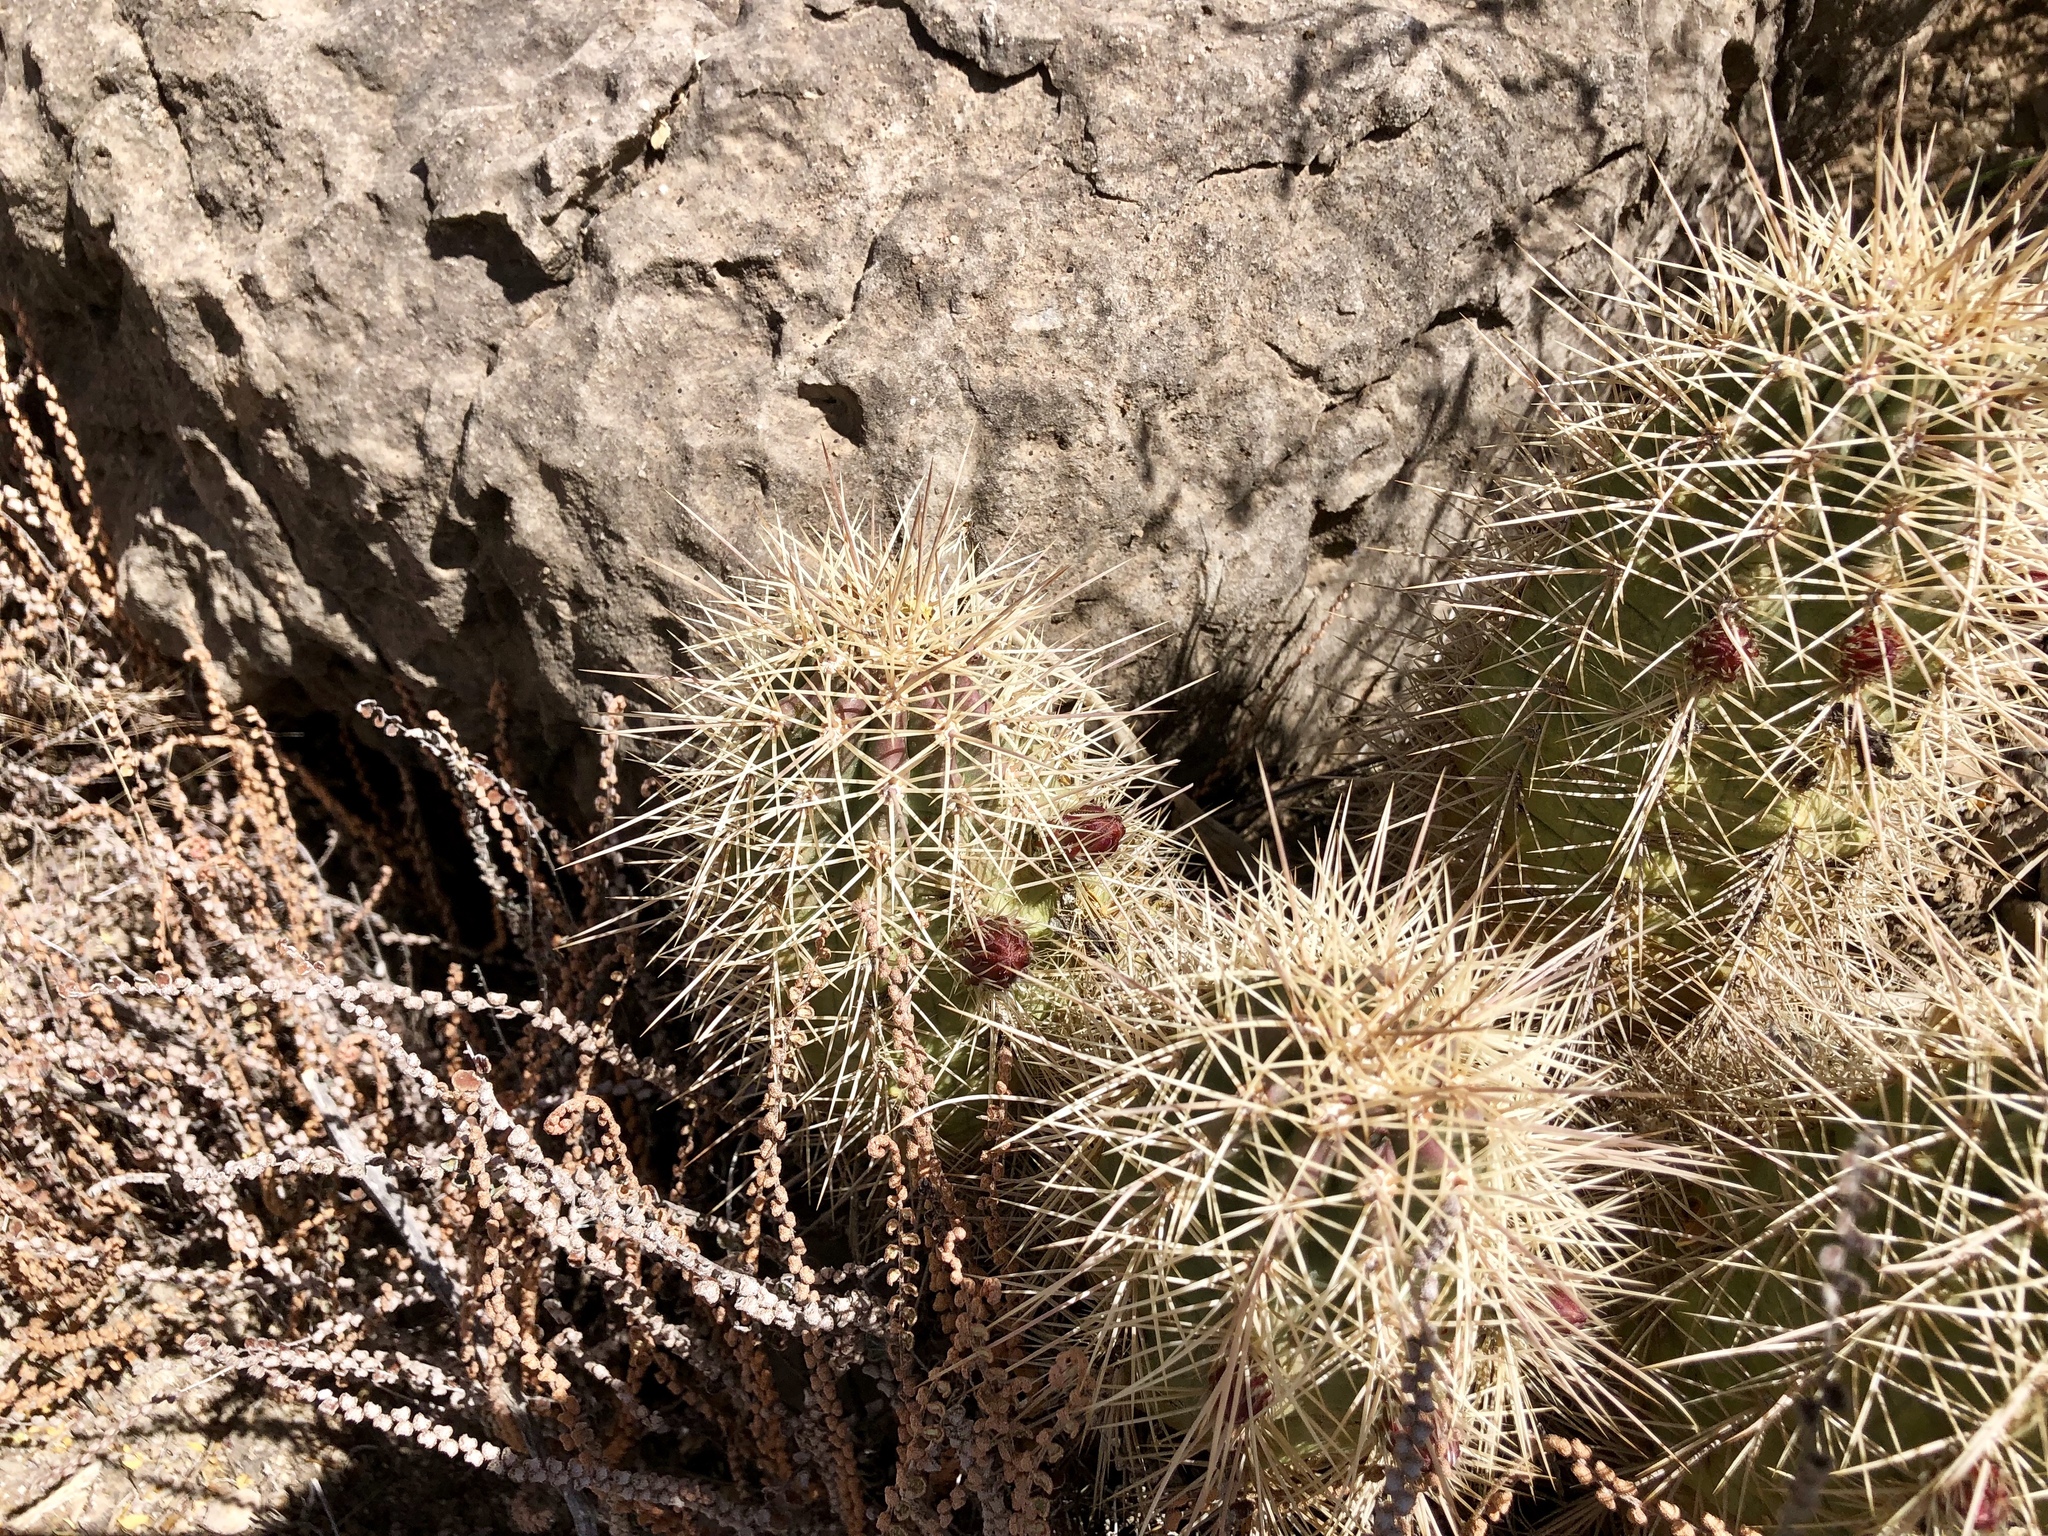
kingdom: Plantae
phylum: Tracheophyta
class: Magnoliopsida
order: Caryophyllales
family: Cactaceae
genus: Echinocereus
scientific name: Echinocereus coccineus
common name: Scarlet hedgehog cactus
